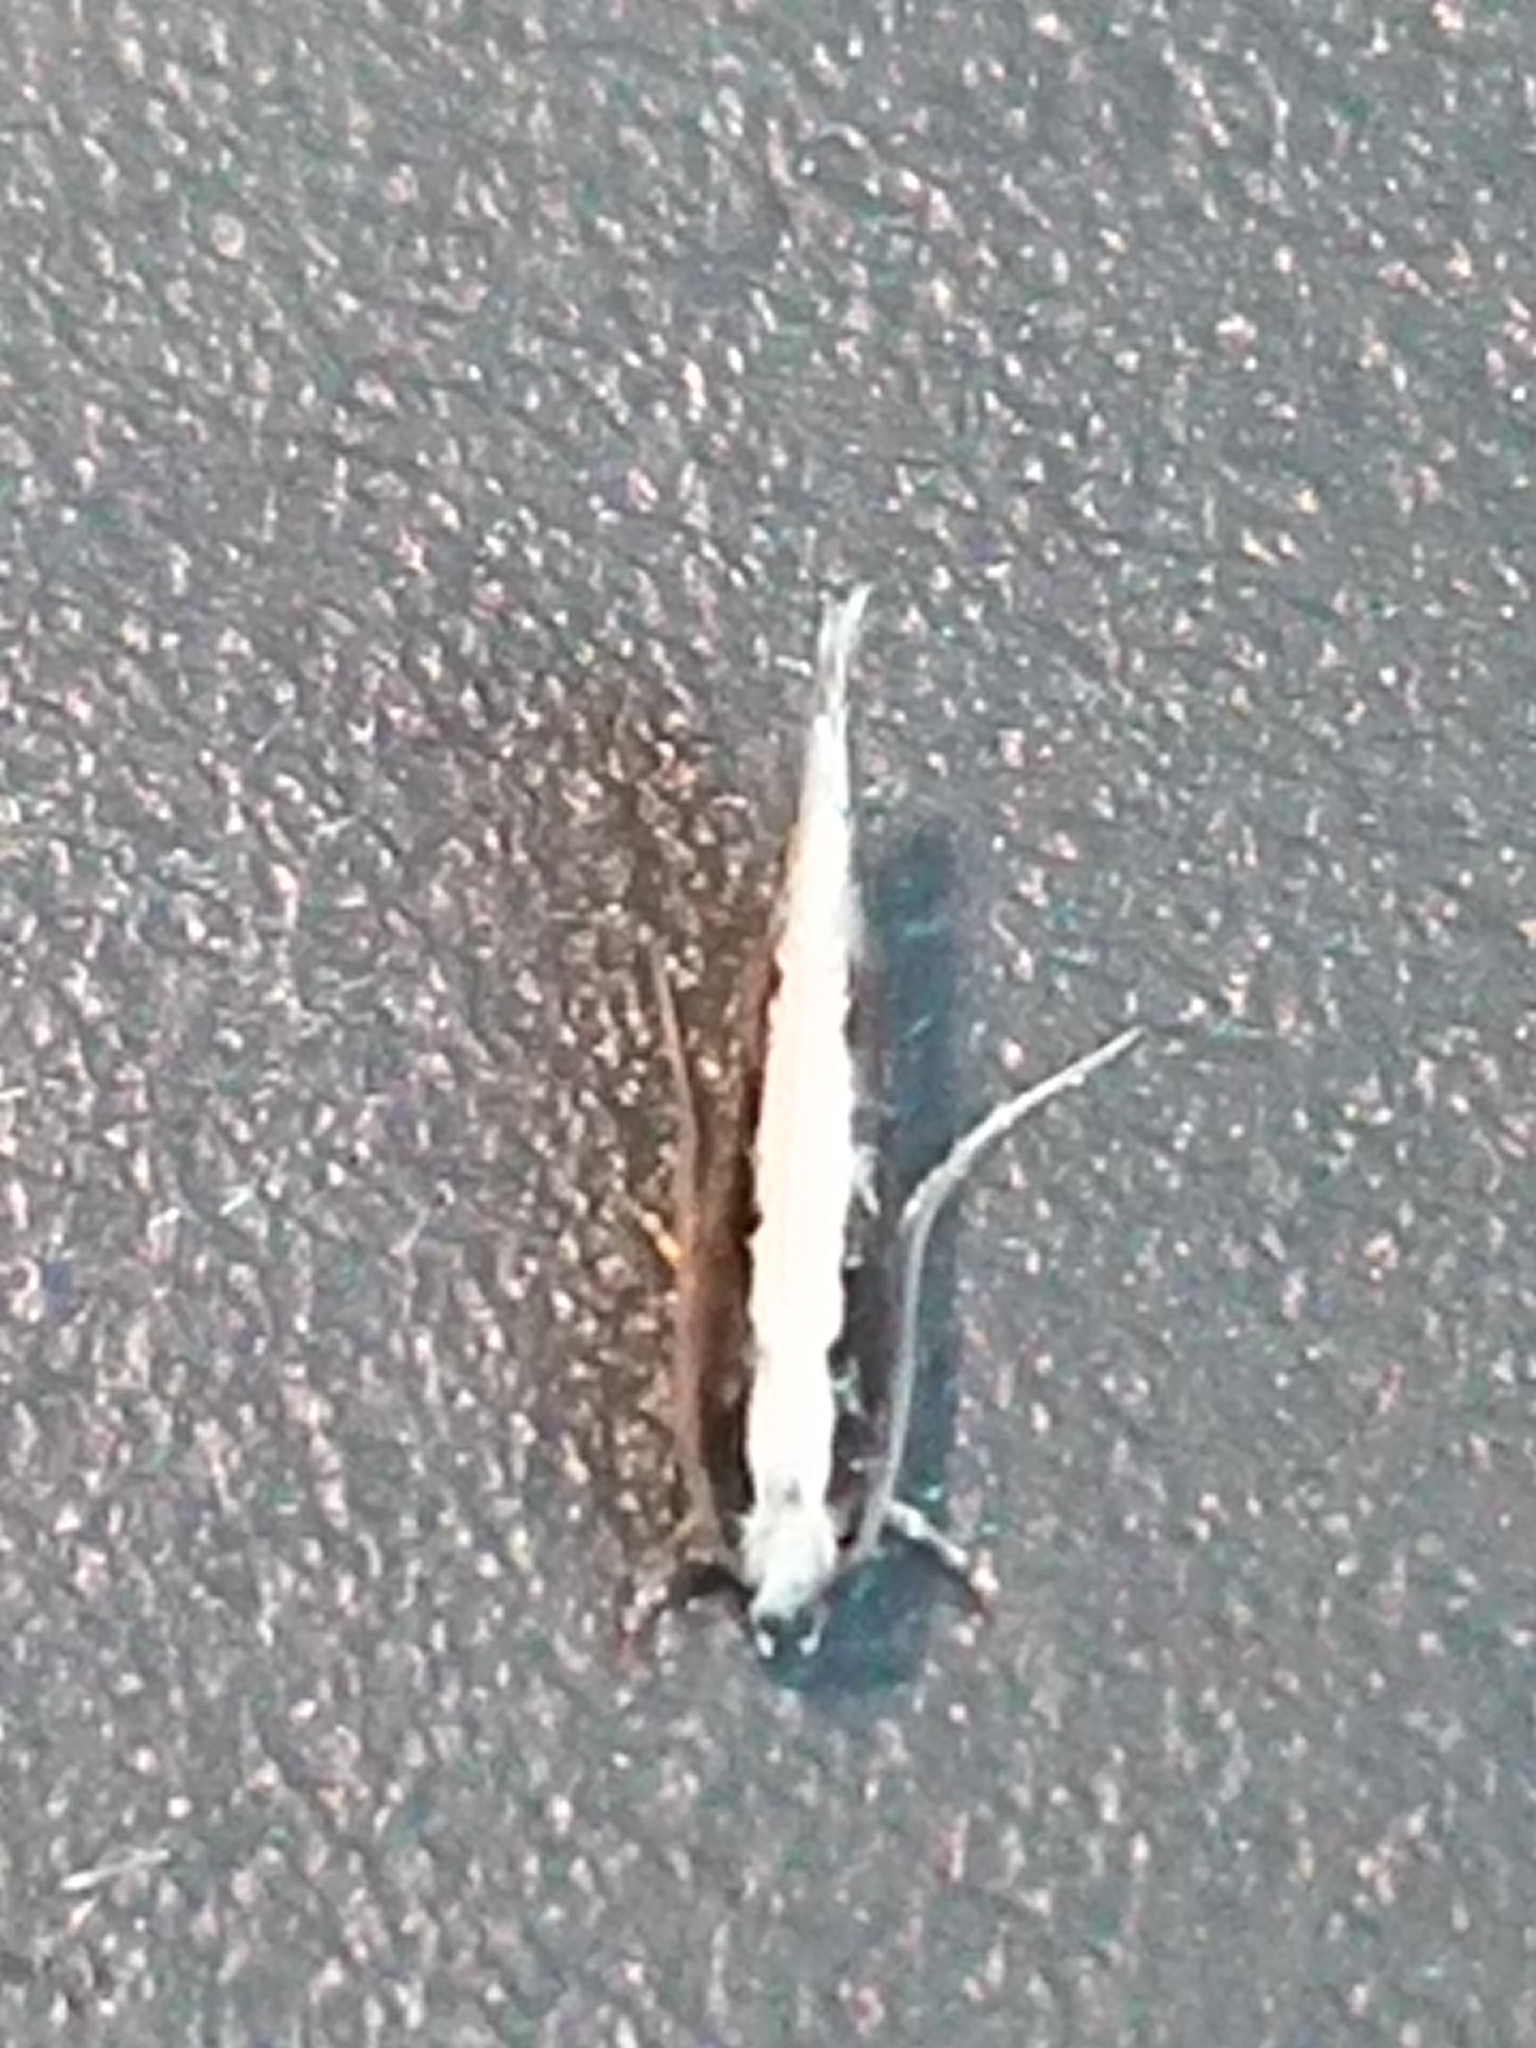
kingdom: Animalia
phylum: Arthropoda
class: Insecta
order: Lepidoptera
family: Tineidae
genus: Monopis
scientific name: Monopis ethelella
